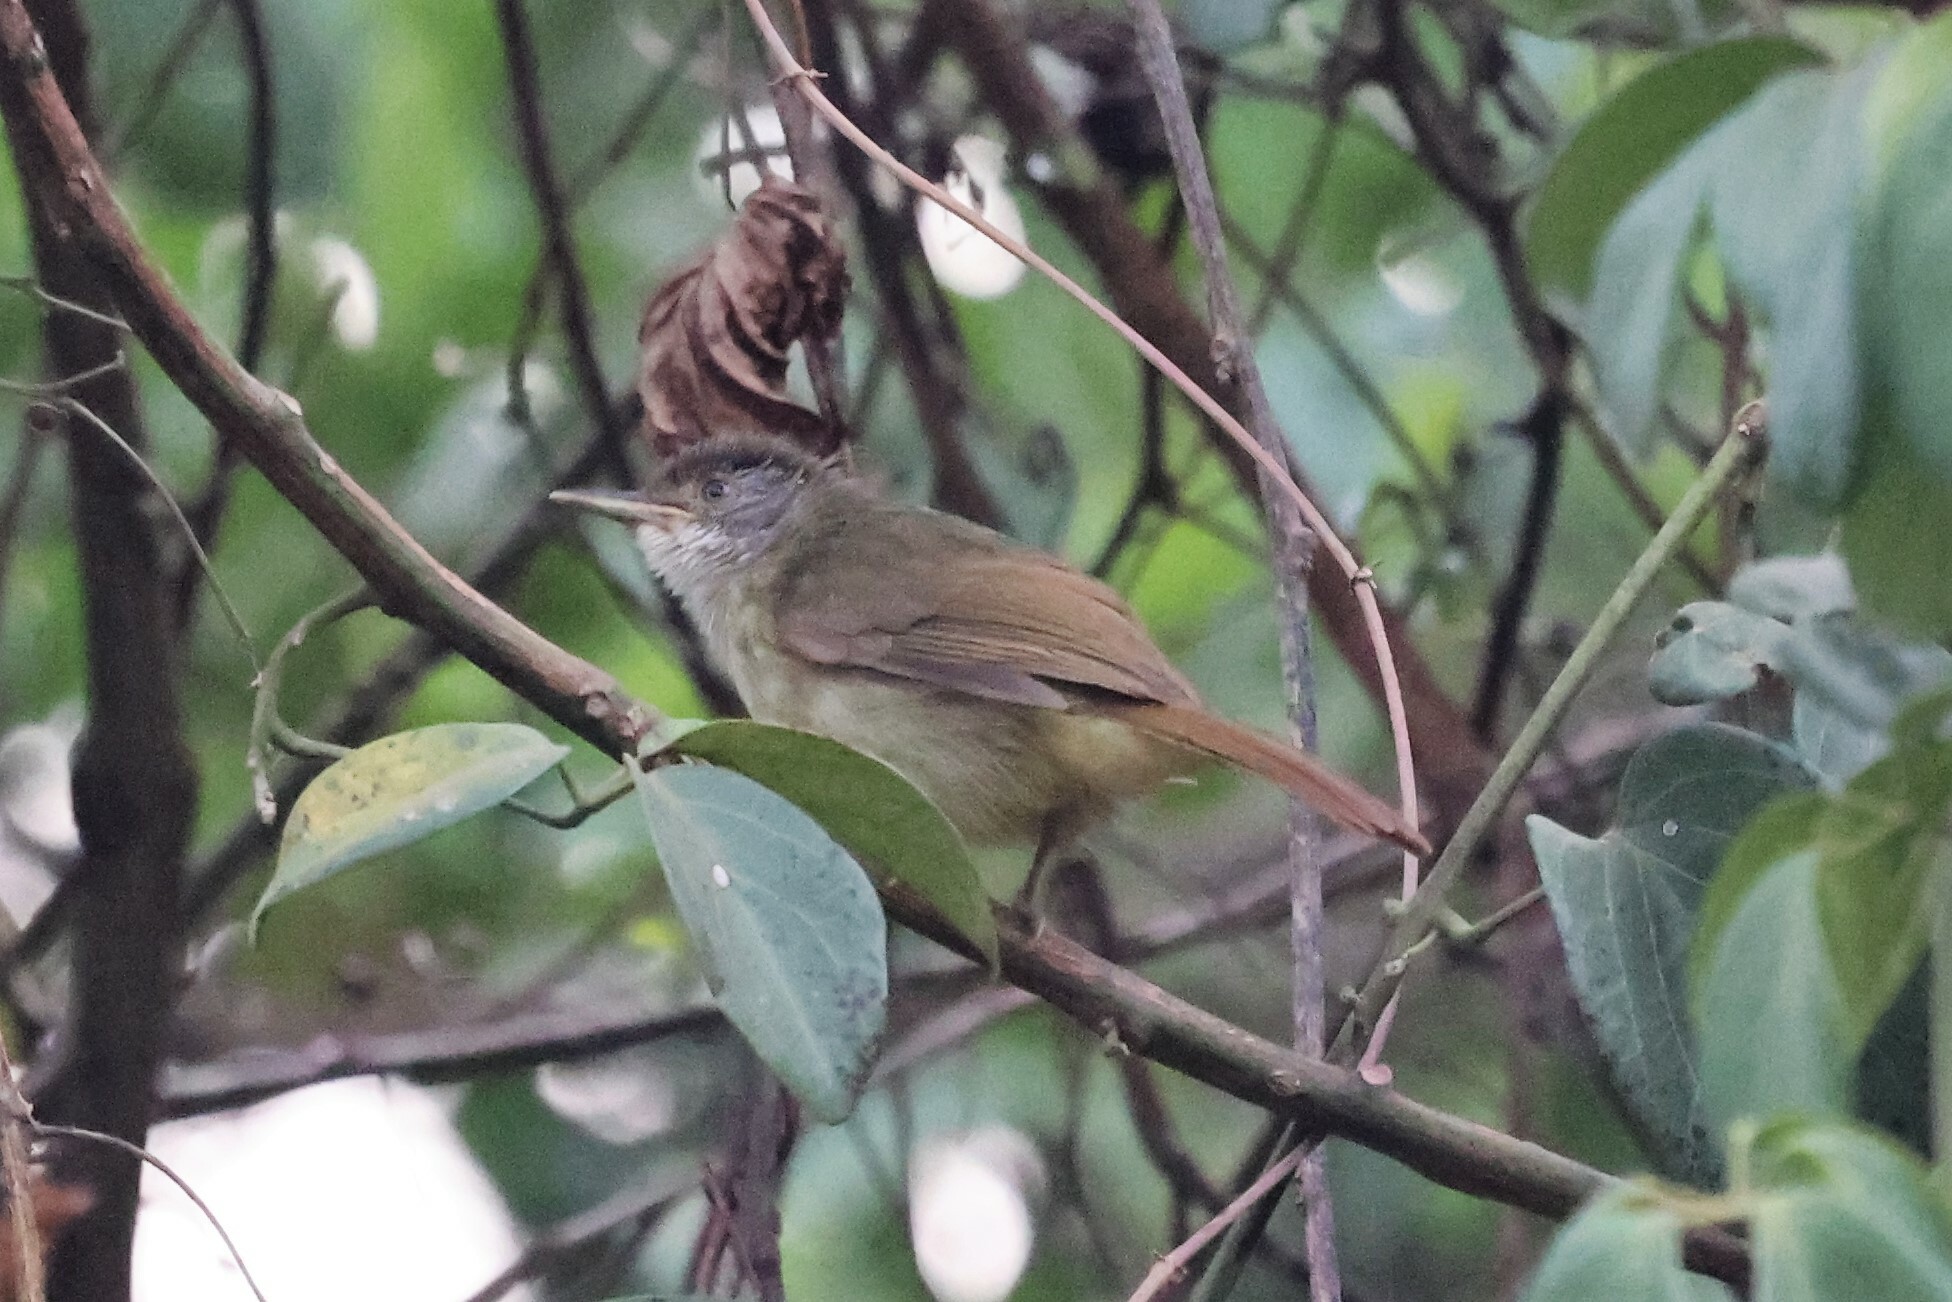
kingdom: Animalia
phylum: Chordata
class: Aves
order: Passeriformes
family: Pycnonotidae
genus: Phyllastrephus
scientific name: Phyllastrephus albigularis
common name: White-throated greenbul
